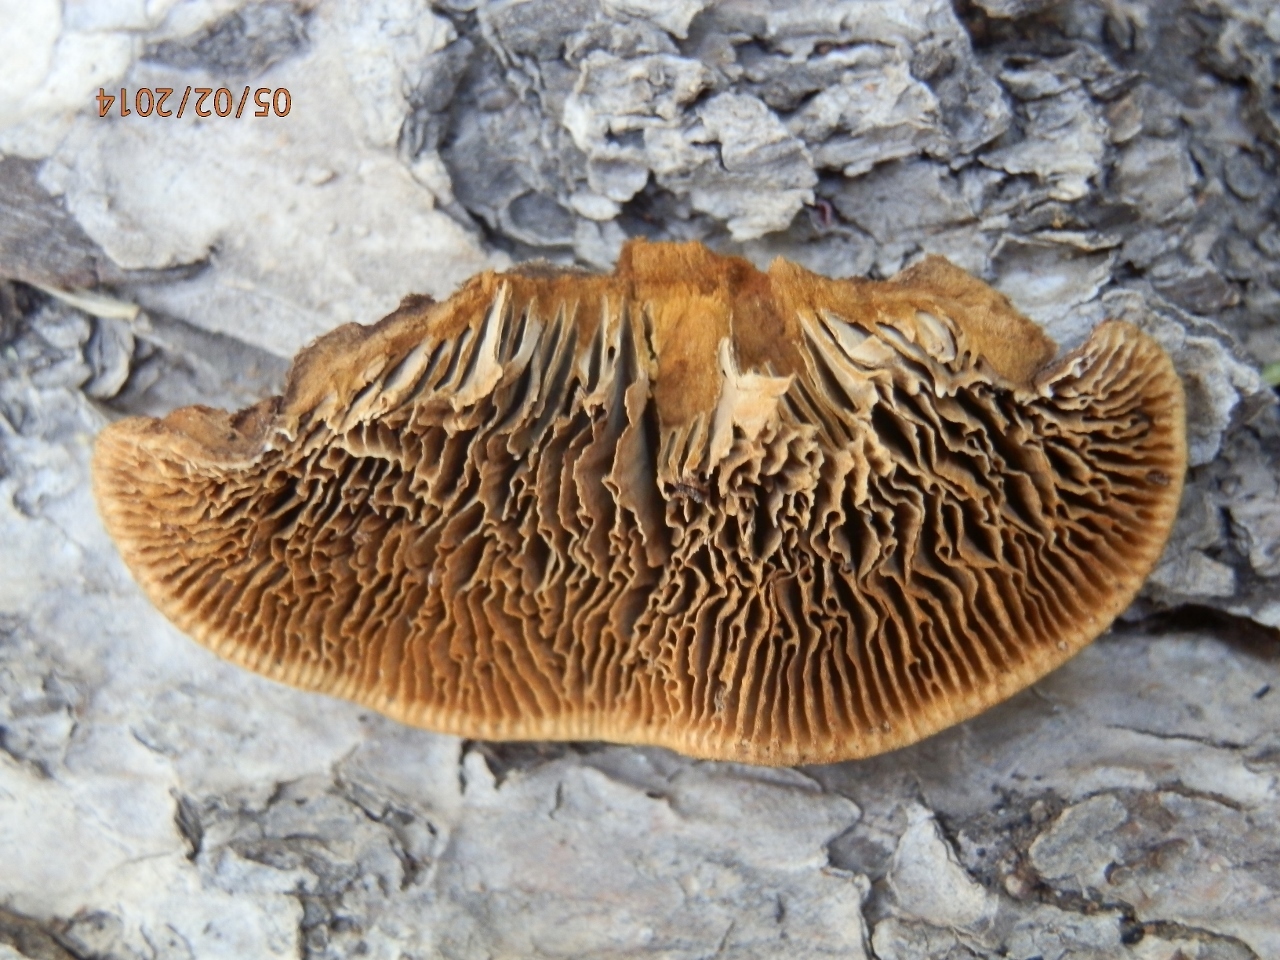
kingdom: Fungi
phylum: Basidiomycota
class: Agaricomycetes
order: Gloeophyllales
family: Gloeophyllaceae
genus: Gloeophyllum
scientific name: Gloeophyllum sepiarium
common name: Conifer mazegill
